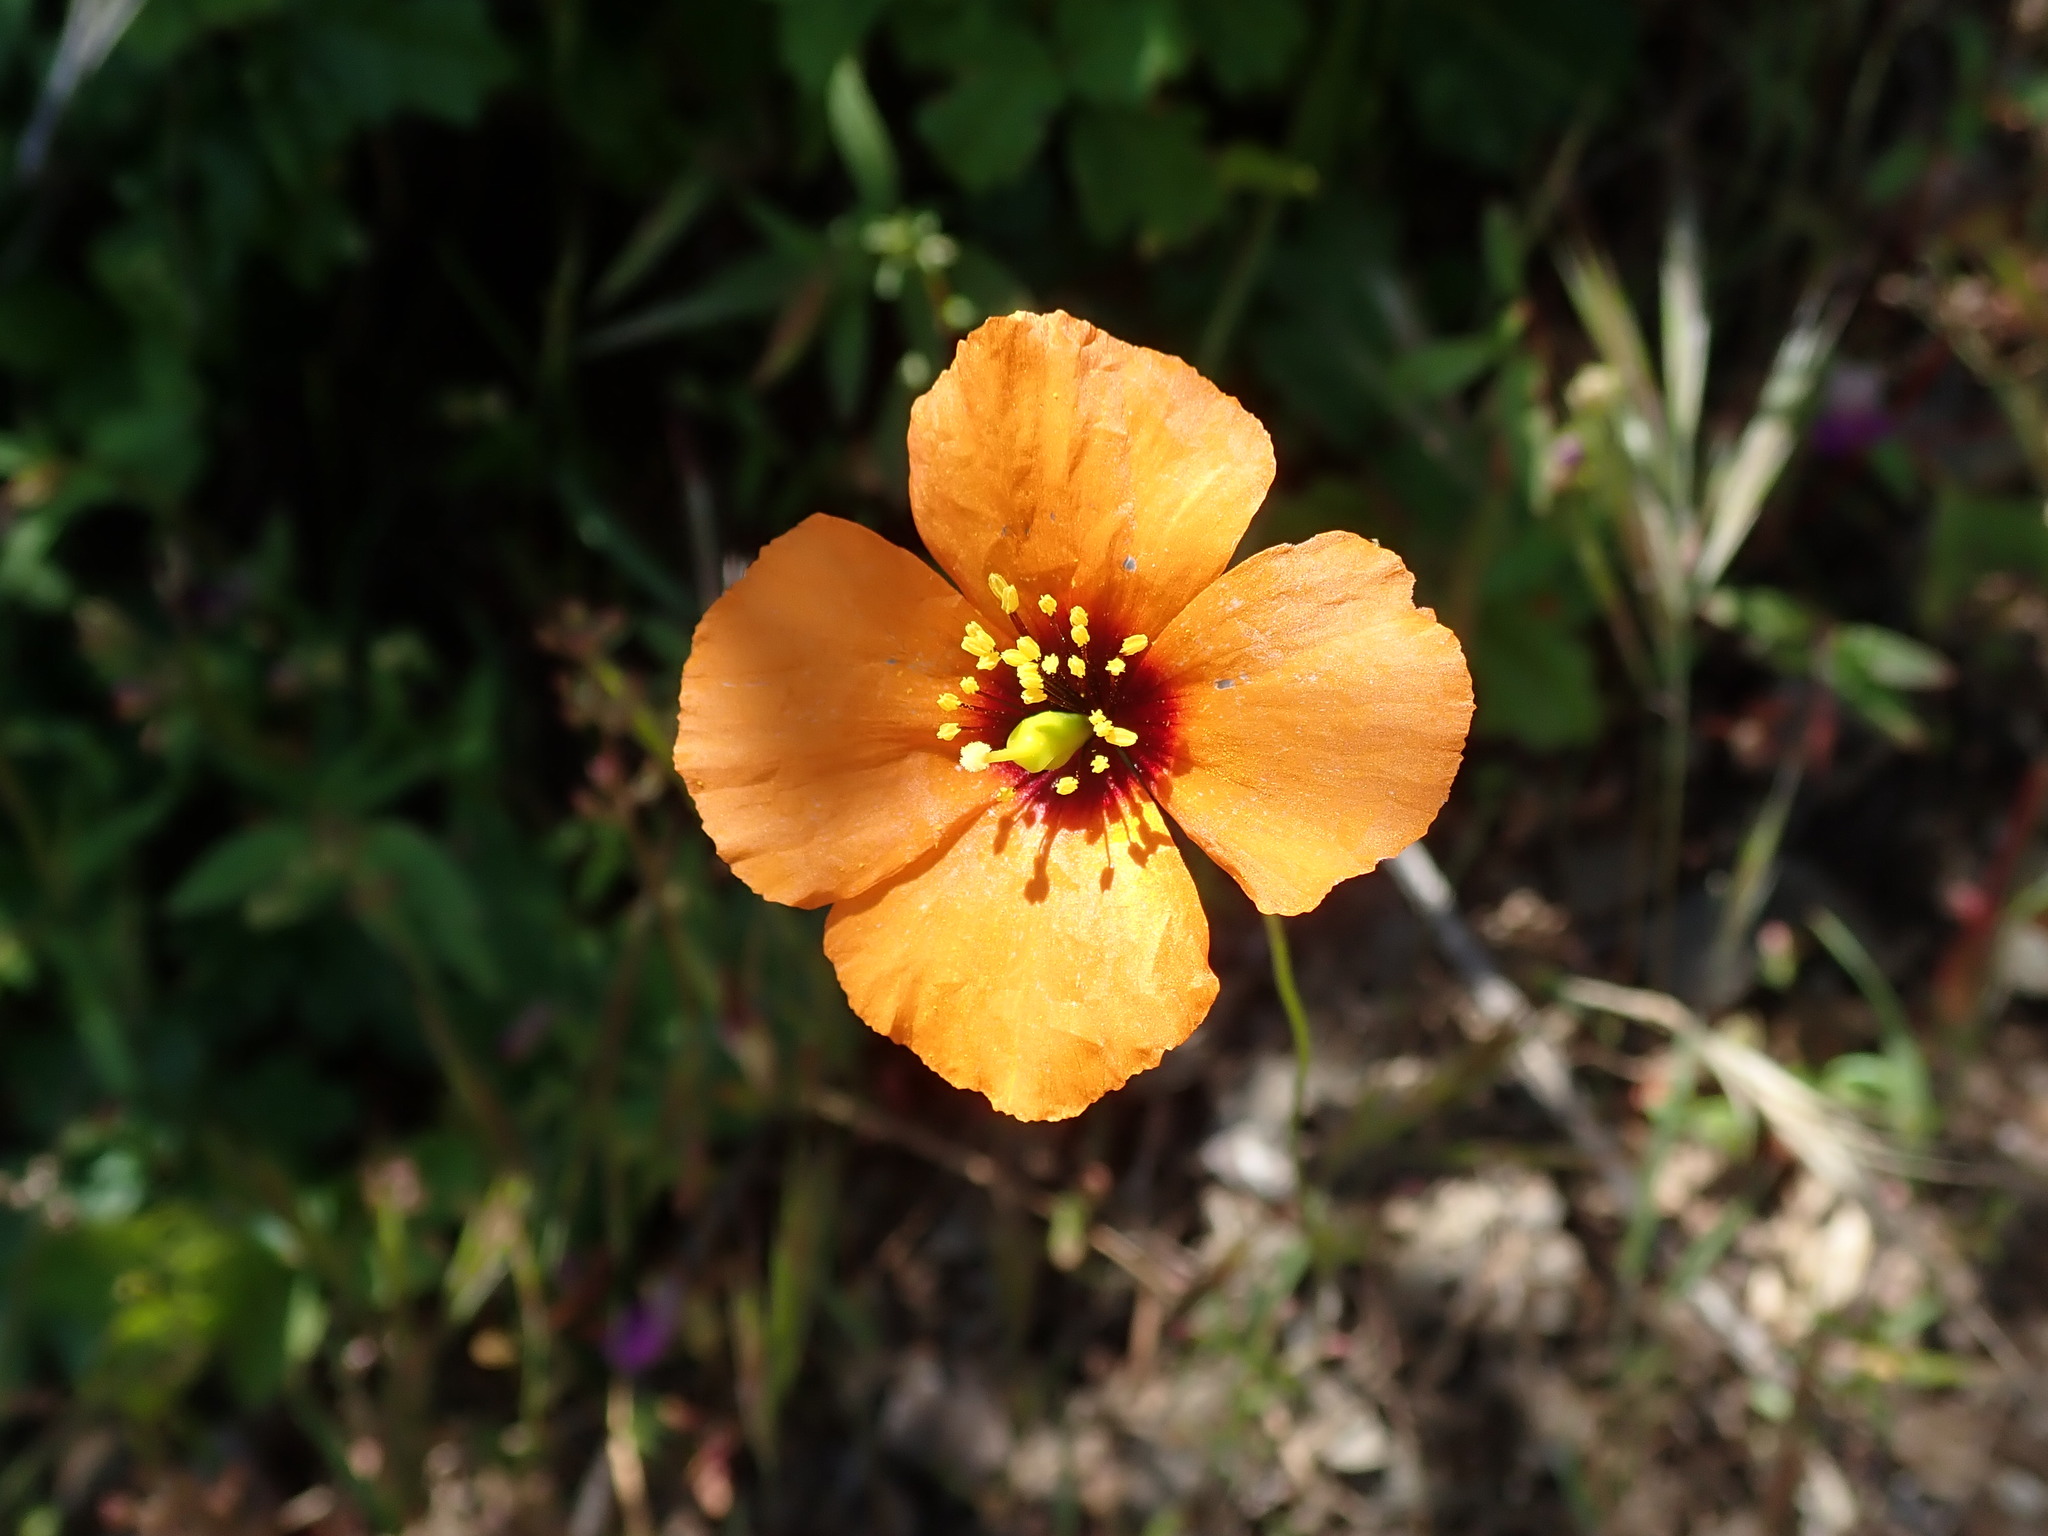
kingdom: Plantae
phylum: Tracheophyta
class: Magnoliopsida
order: Ranunculales
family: Papaveraceae
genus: Stylomecon
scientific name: Stylomecon heterophylla
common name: Flaming-poppy
